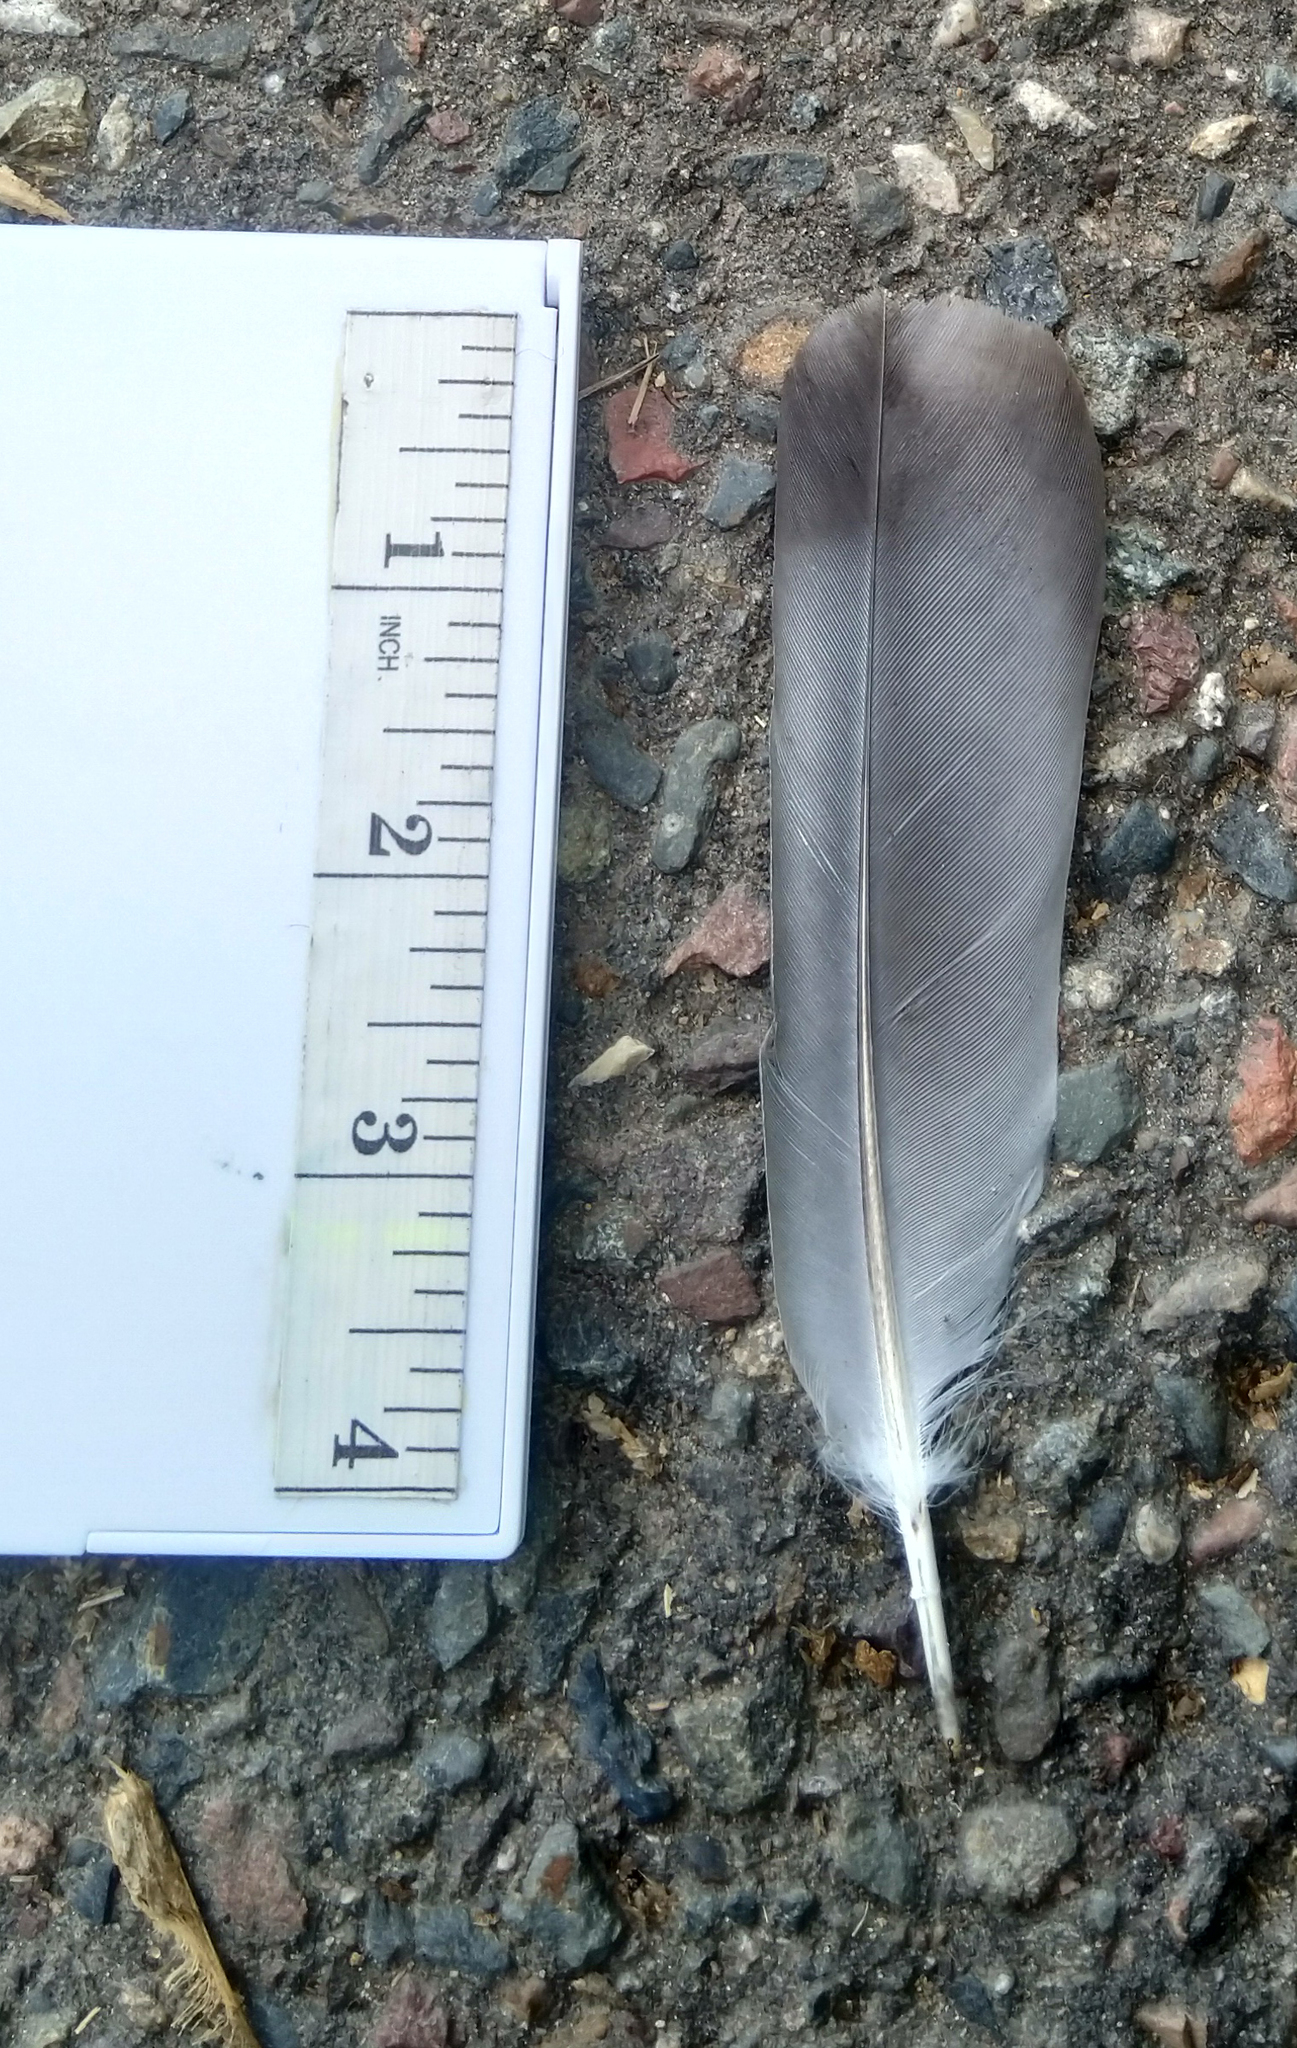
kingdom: Animalia
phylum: Chordata
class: Aves
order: Columbiformes
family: Columbidae
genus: Columba
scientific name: Columba livia
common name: Rock pigeon
